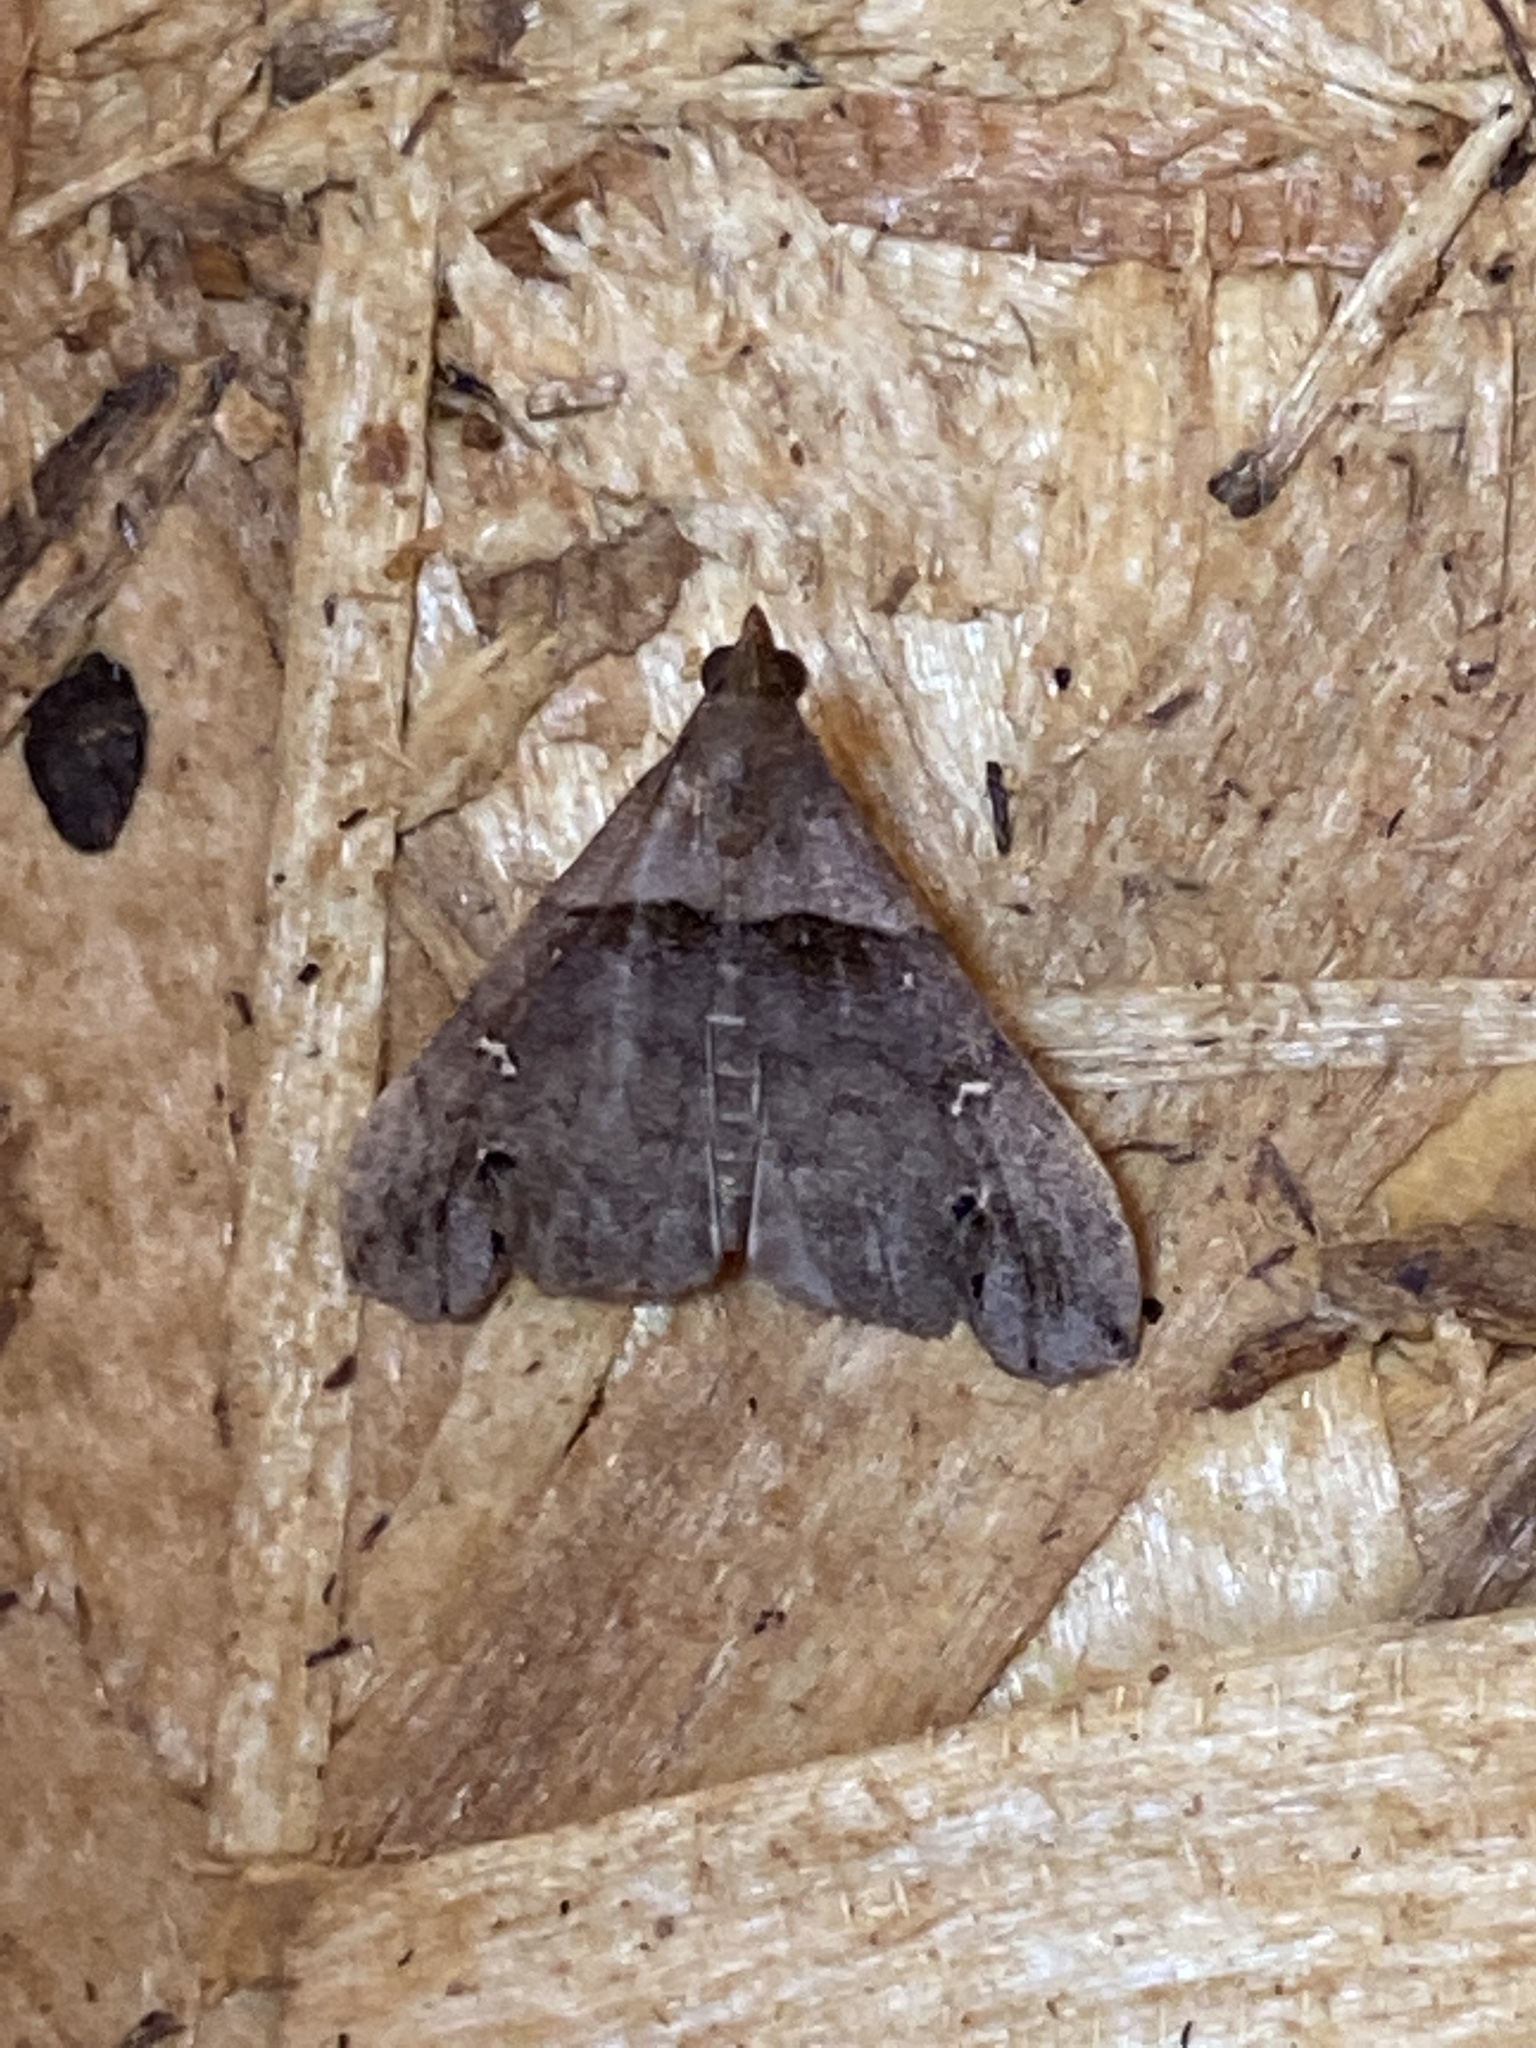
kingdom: Animalia
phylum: Arthropoda
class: Insecta
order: Lepidoptera
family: Erebidae
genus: Lascoria
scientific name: Lascoria ambigualis
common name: Ambiguous moth
